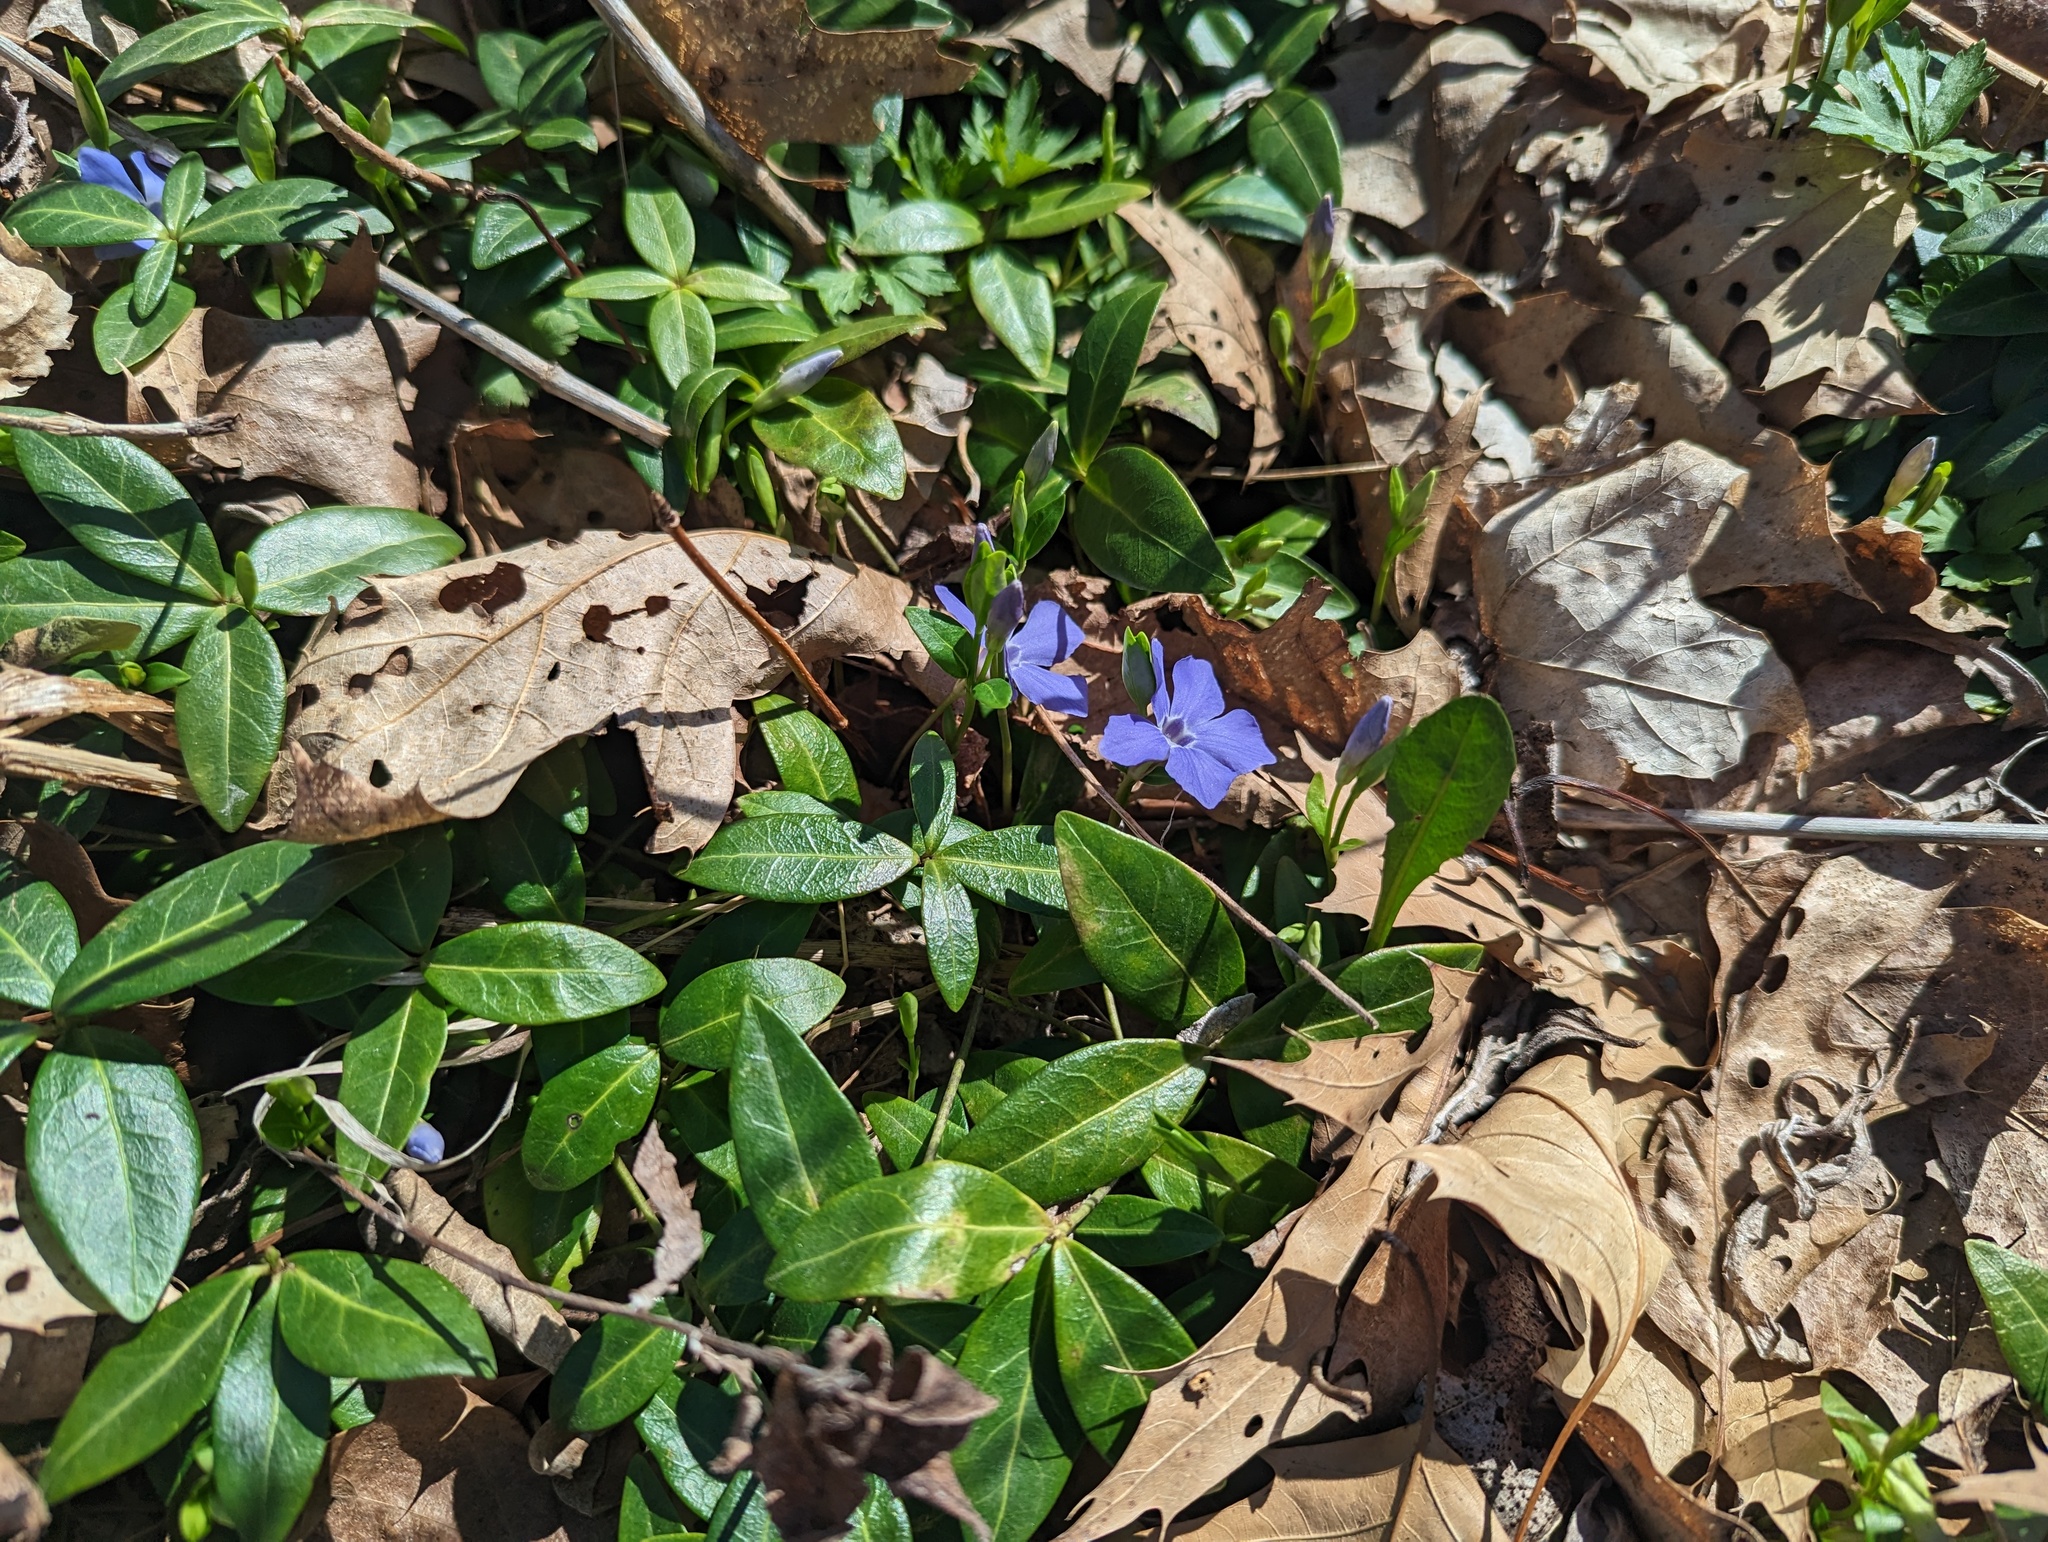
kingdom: Plantae
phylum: Tracheophyta
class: Magnoliopsida
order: Gentianales
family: Apocynaceae
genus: Vinca
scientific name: Vinca minor
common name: Lesser periwinkle
